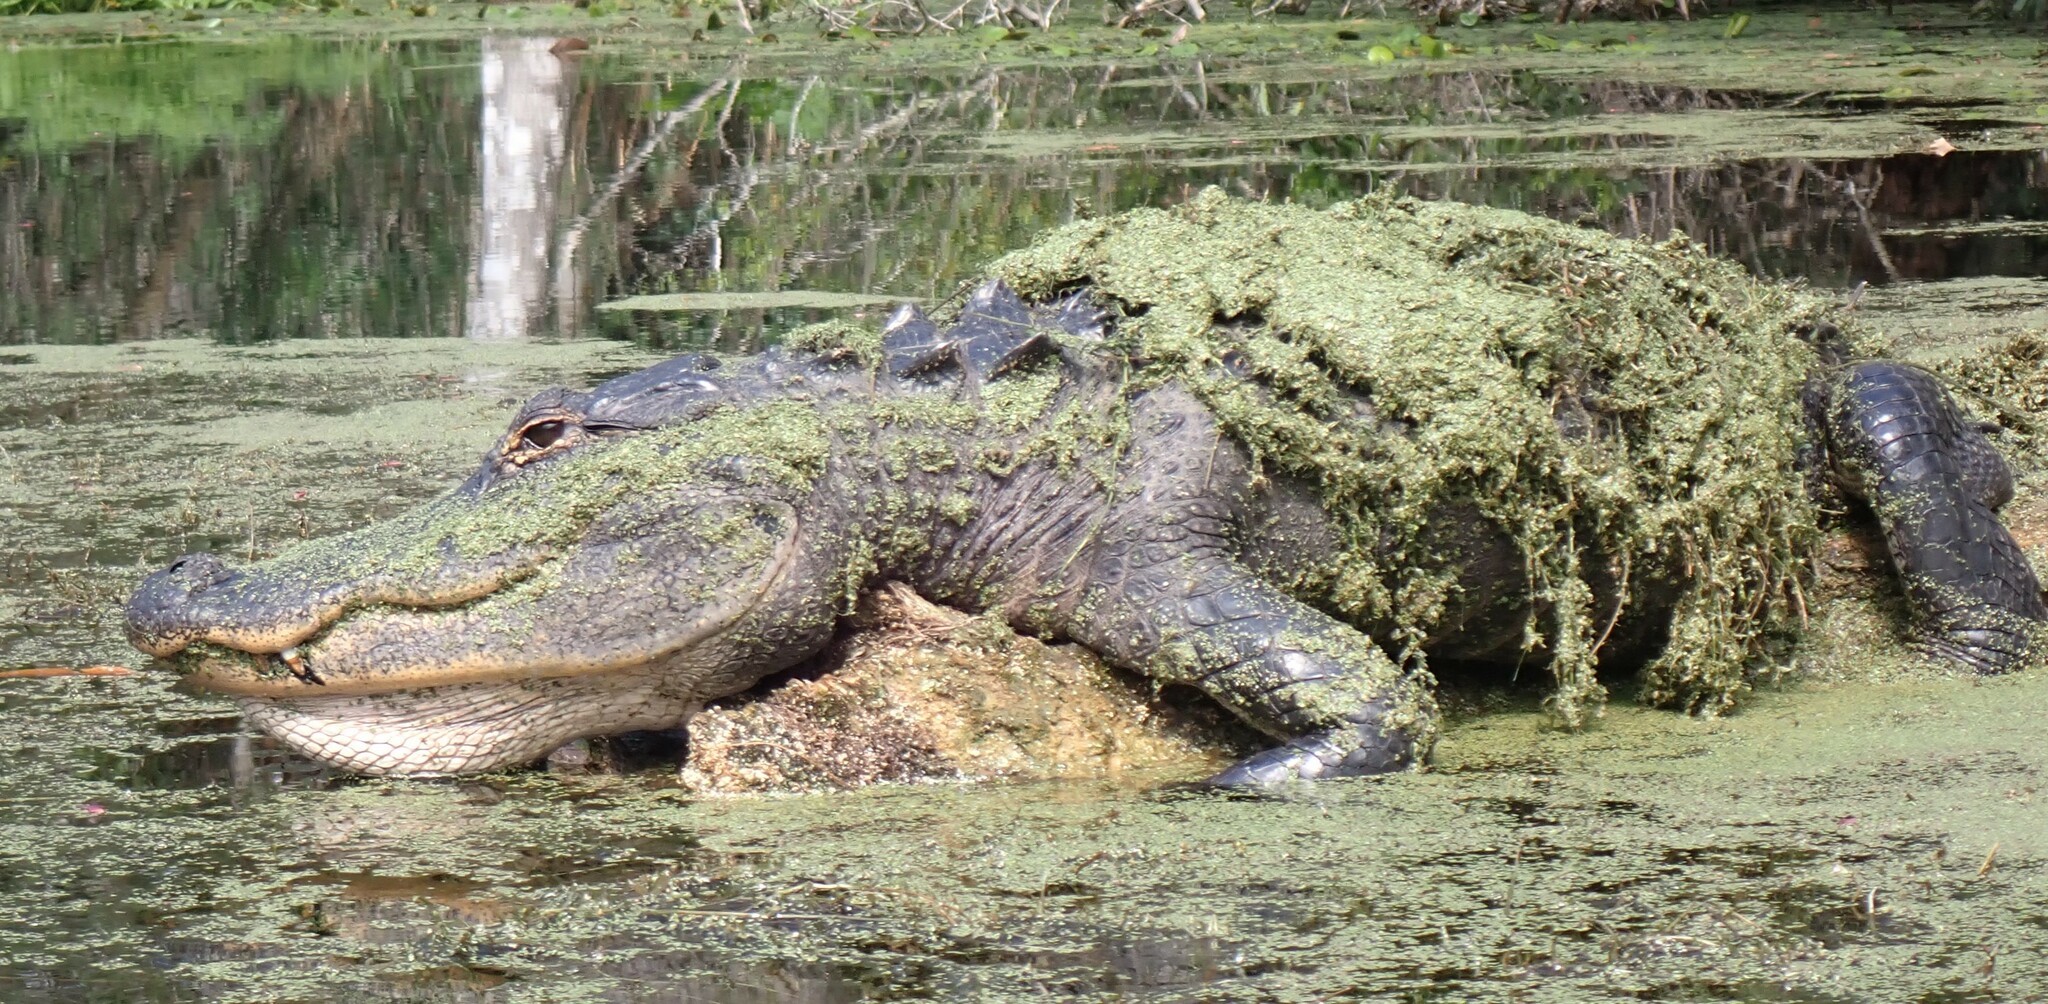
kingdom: Animalia
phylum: Chordata
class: Crocodylia
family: Alligatoridae
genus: Alligator
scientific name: Alligator mississippiensis
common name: American alligator
